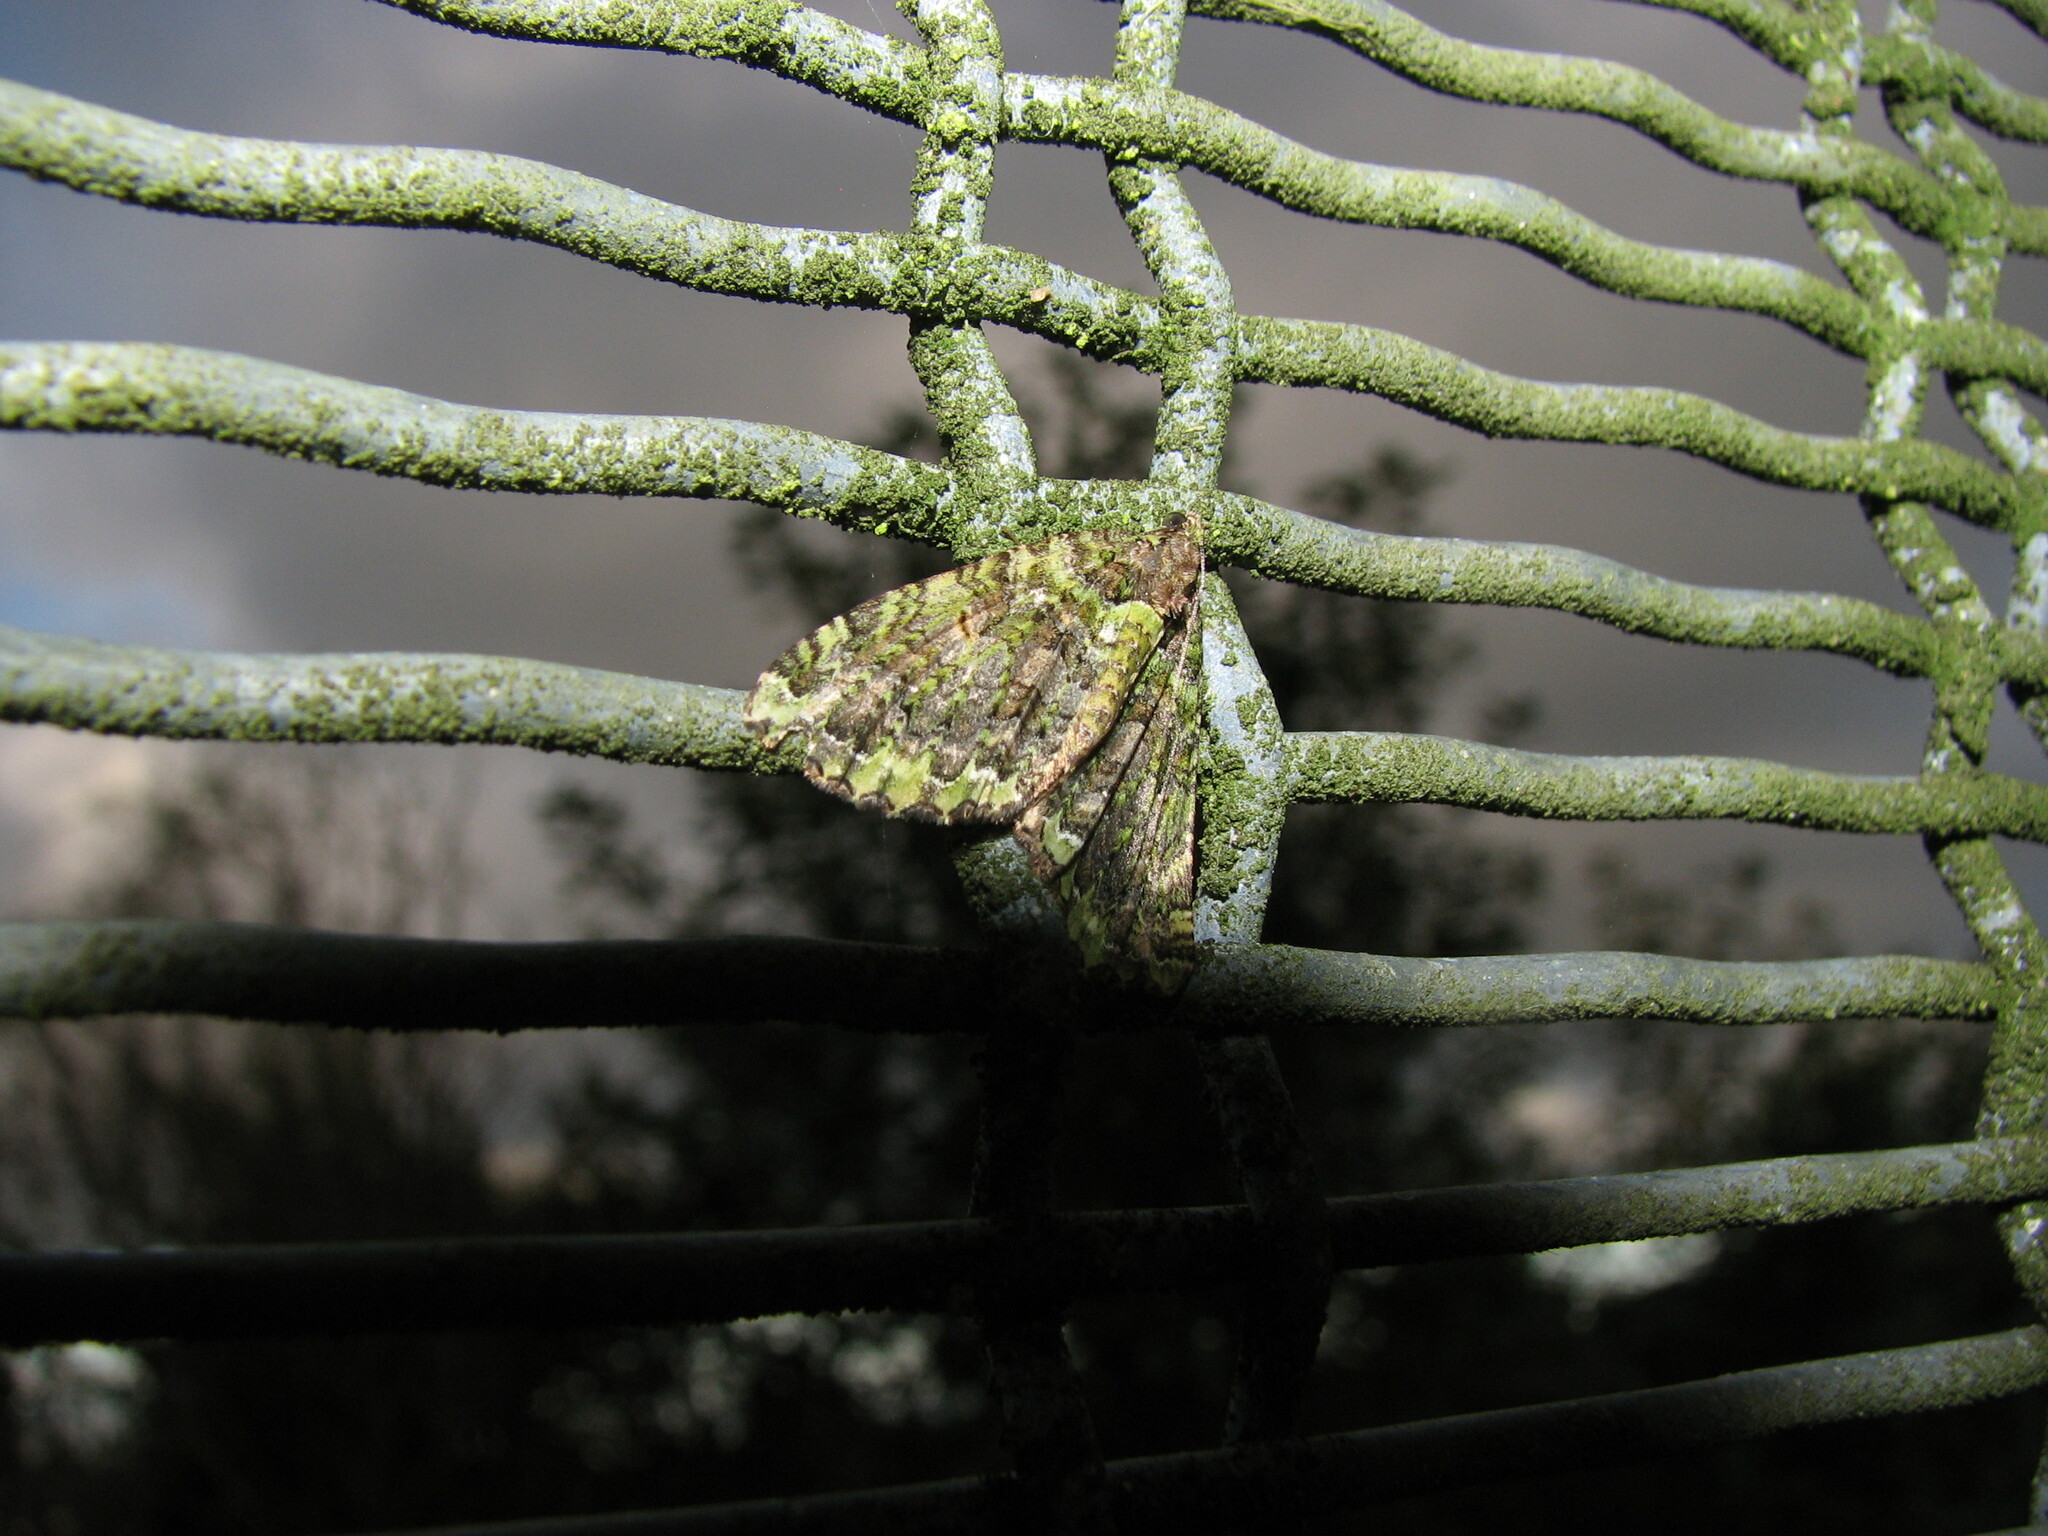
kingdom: Animalia
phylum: Arthropoda
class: Insecta
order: Lepidoptera
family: Geometridae
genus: Austrocidaria
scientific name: Austrocidaria similata
